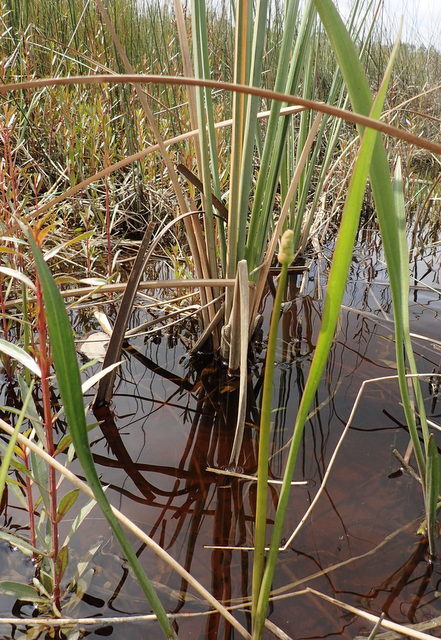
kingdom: Plantae
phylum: Tracheophyta
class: Liliopsida
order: Alismatales
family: Alismataceae
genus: Sagittaria
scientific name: Sagittaria lancifolia
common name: Lance-leaf arrowhead
